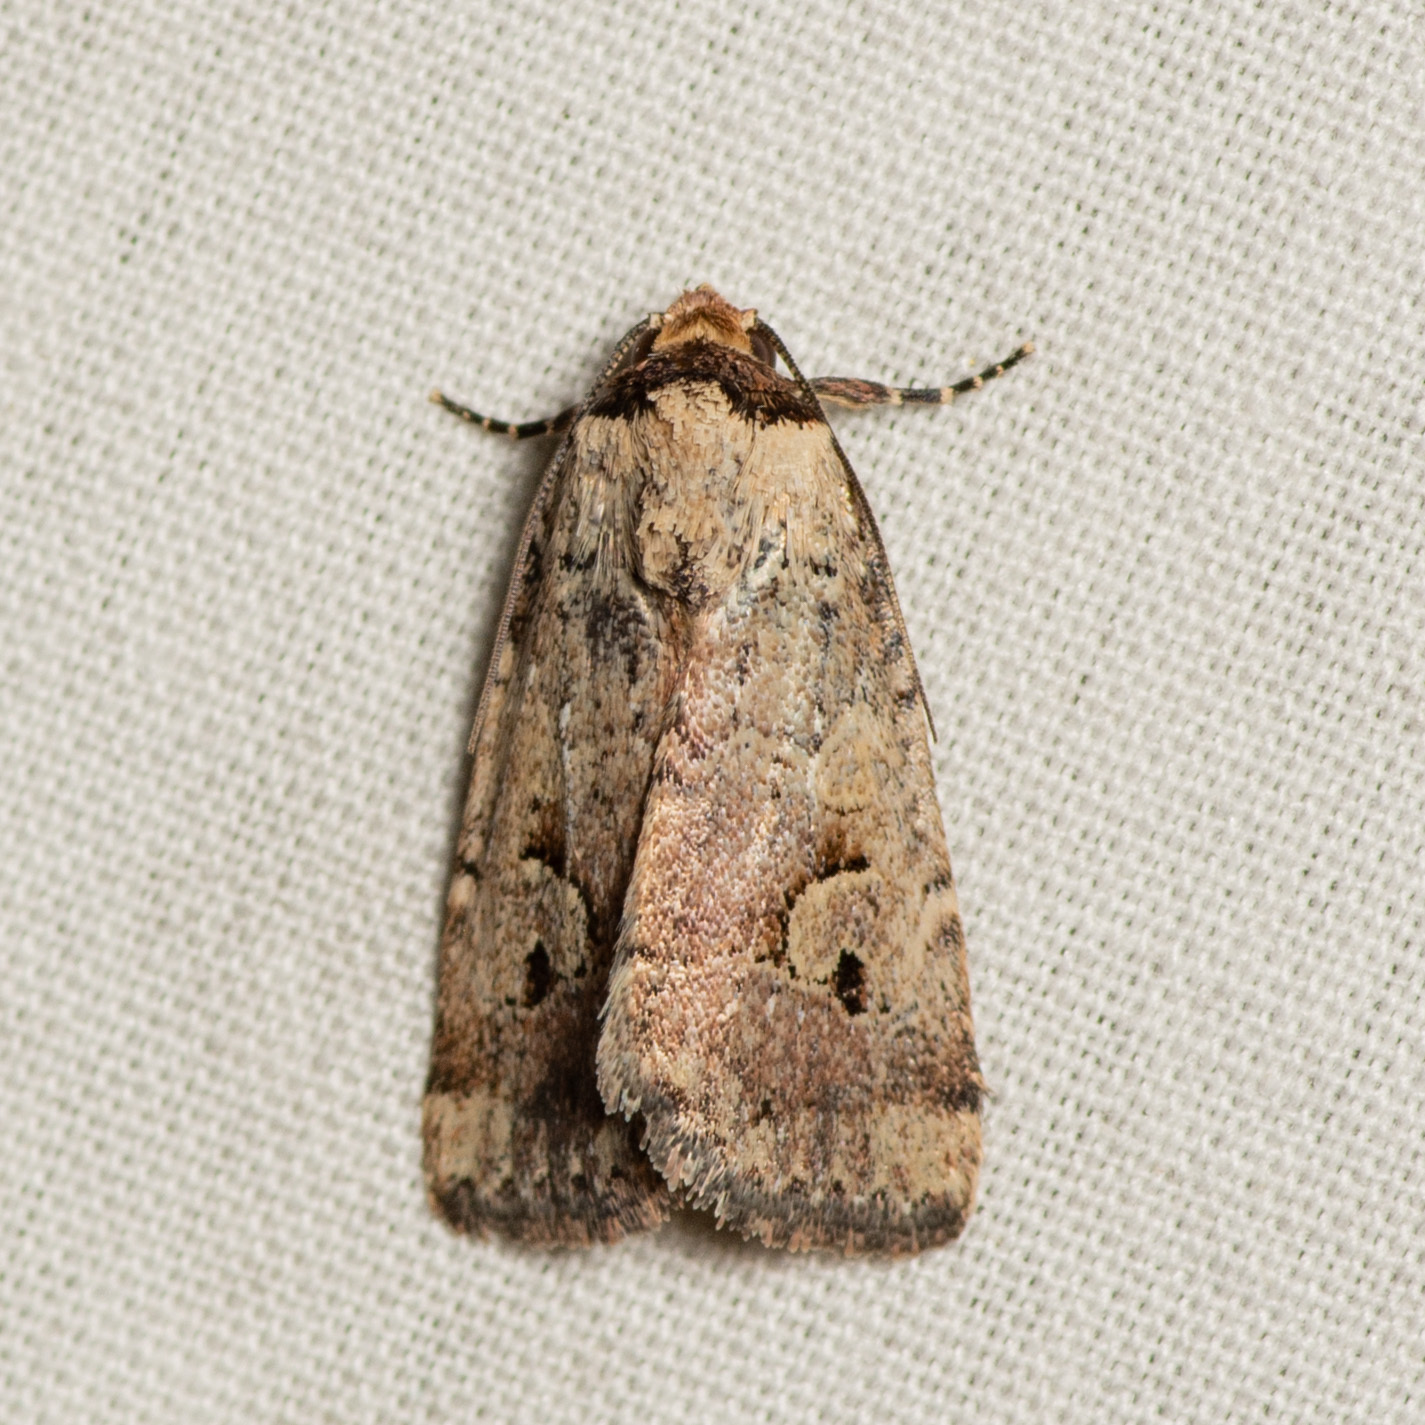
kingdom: Animalia
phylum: Arthropoda
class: Insecta
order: Lepidoptera
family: Noctuidae
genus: Elaphria
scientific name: Elaphria festivoides
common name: Festive midget
